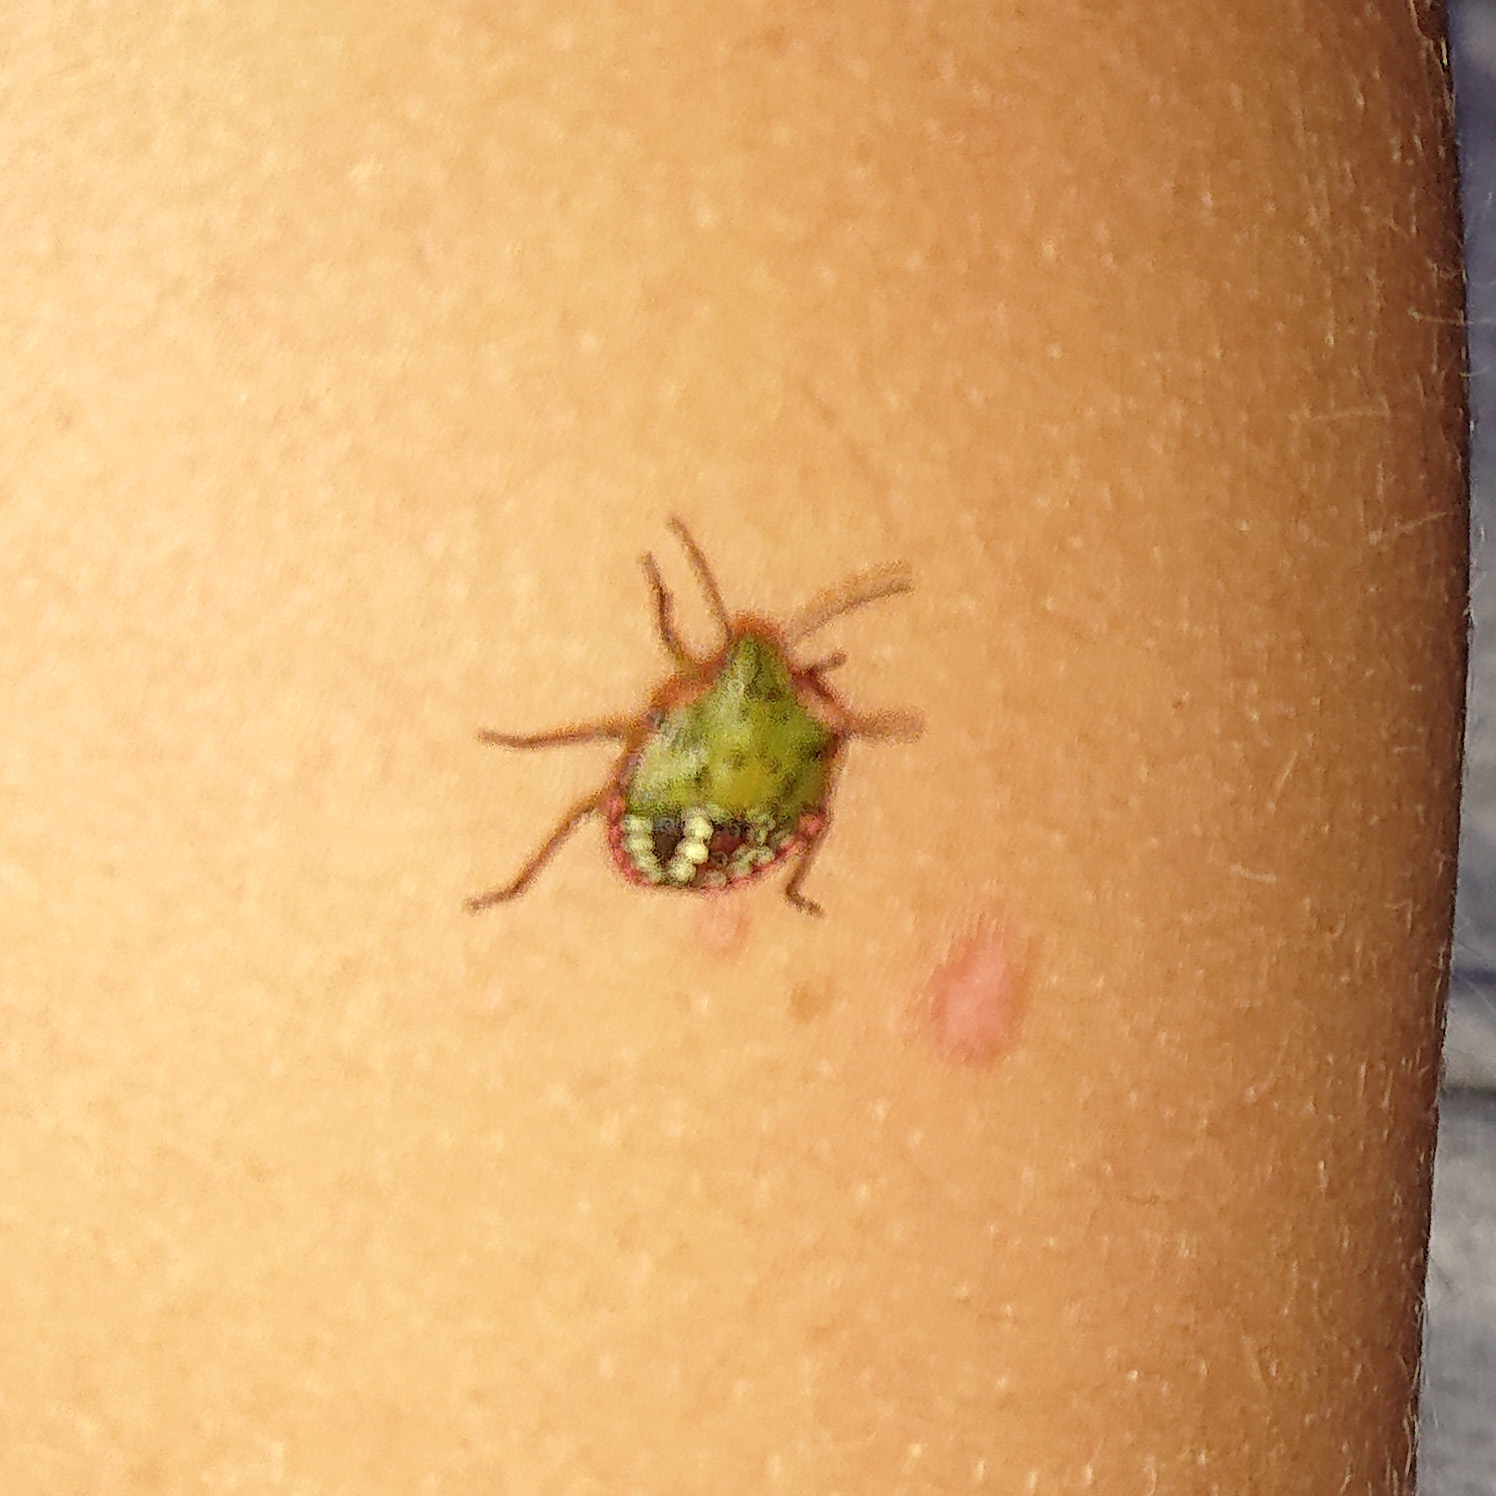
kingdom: Animalia
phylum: Arthropoda
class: Insecta
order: Hemiptera
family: Pentatomidae
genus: Nezara
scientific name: Nezara viridula
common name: Southern green stink bug
